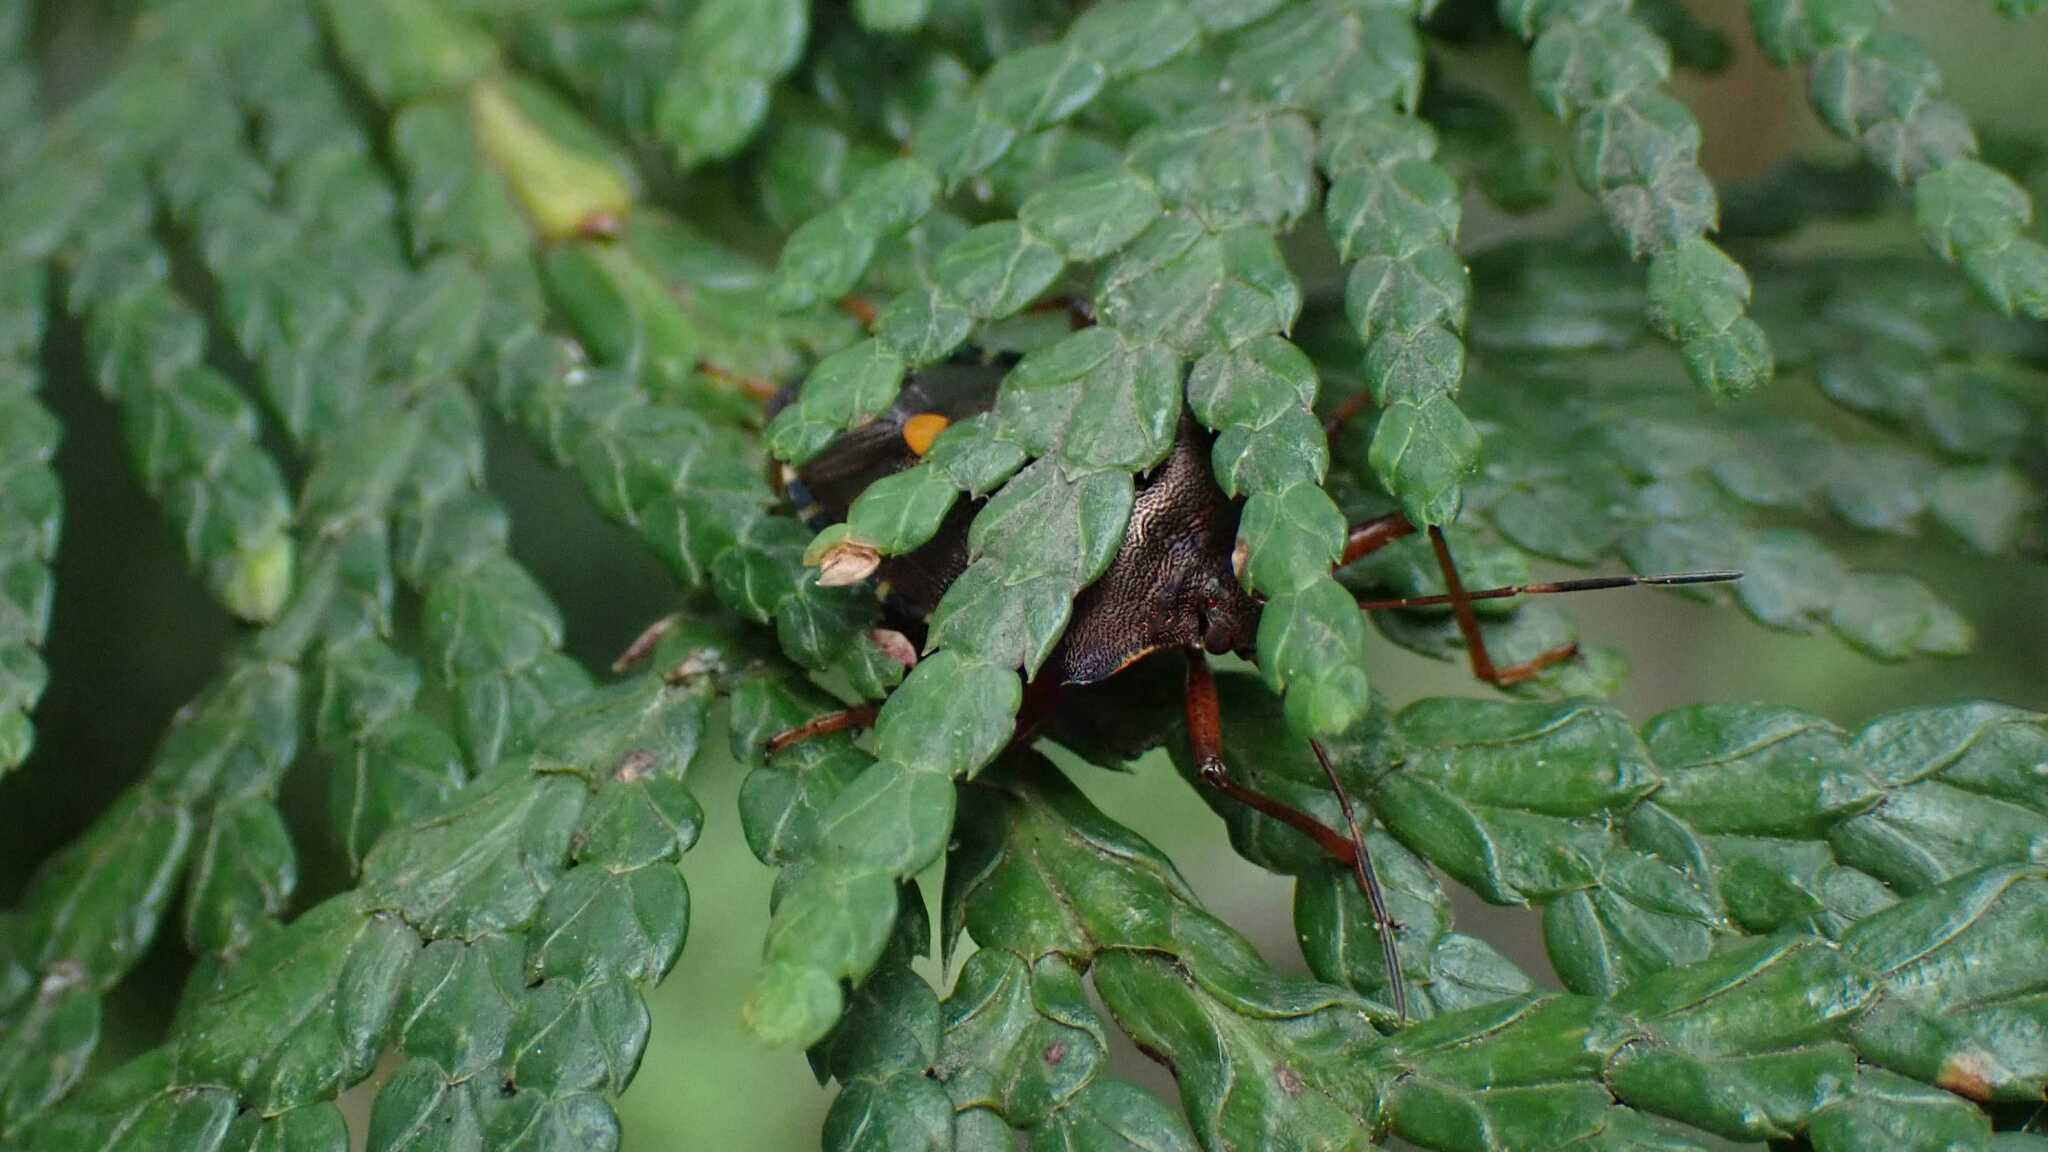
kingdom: Animalia
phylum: Arthropoda
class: Insecta
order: Hemiptera
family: Pentatomidae
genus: Pentatoma
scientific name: Pentatoma rufipes
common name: Forest bug
